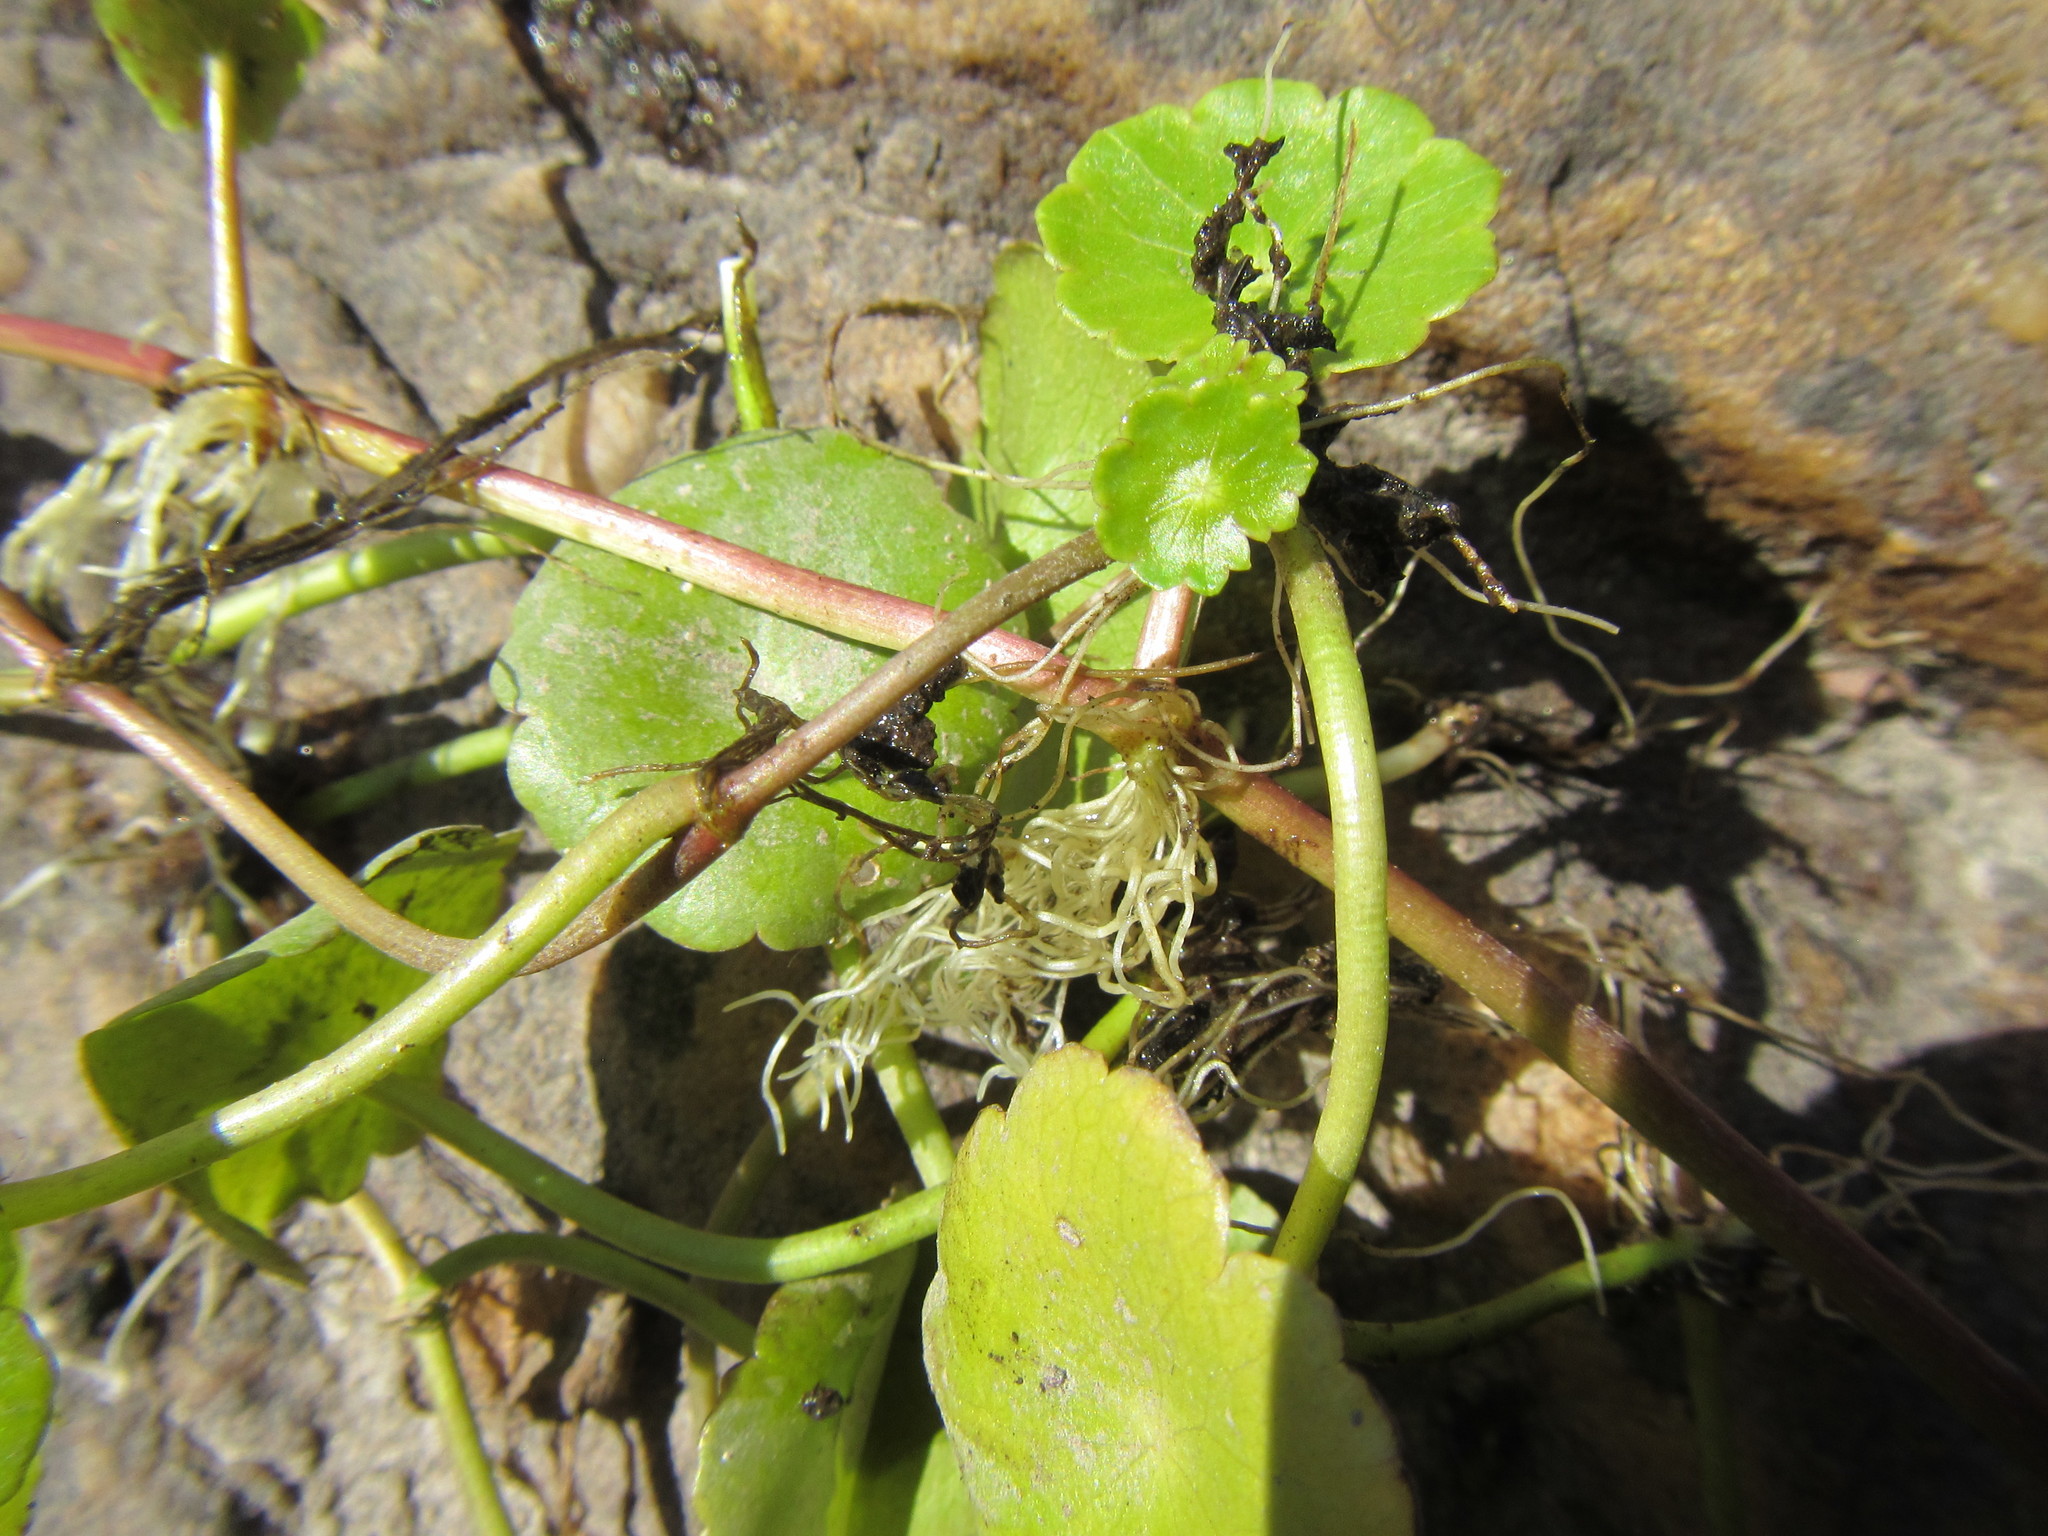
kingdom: Plantae
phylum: Tracheophyta
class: Magnoliopsida
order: Apiales
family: Araliaceae
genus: Hydrocotyle
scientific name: Hydrocotyle verticillata
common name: Whorled marshpennywort
